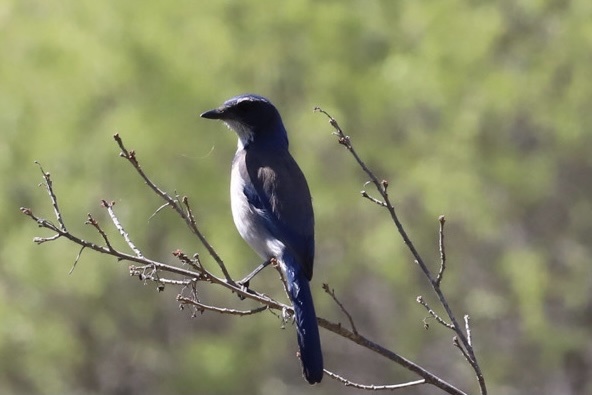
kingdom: Animalia
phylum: Chordata
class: Aves
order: Passeriformes
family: Corvidae
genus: Aphelocoma
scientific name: Aphelocoma californica
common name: California scrub-jay
